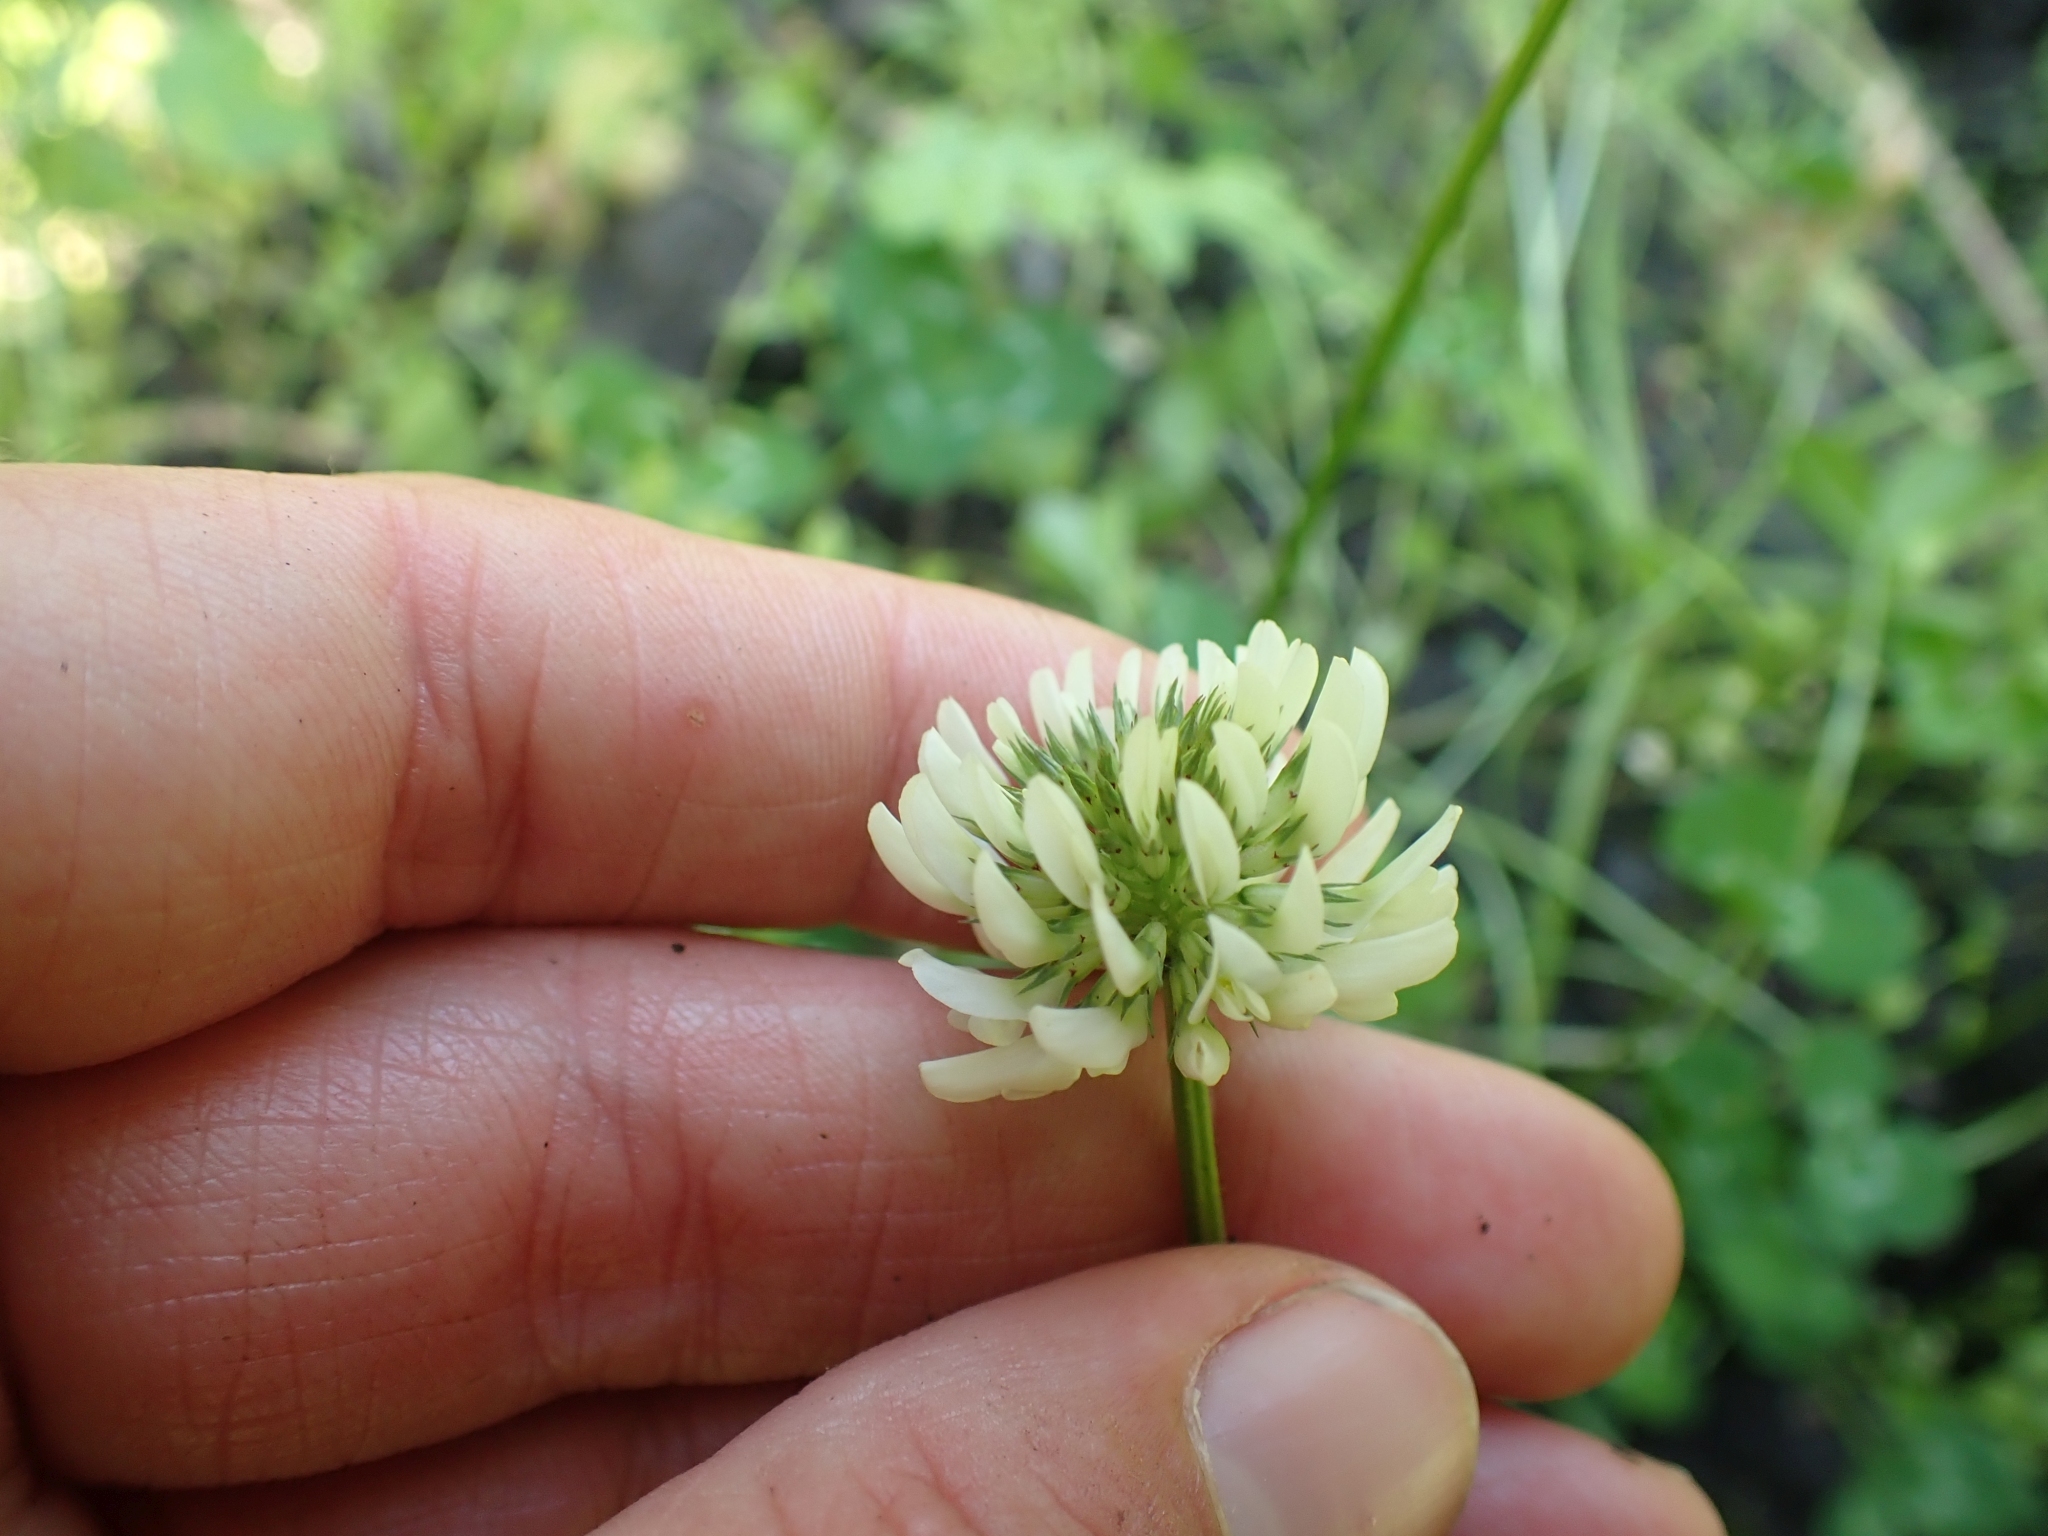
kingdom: Plantae
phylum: Tracheophyta
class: Magnoliopsida
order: Fabales
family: Fabaceae
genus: Trifolium
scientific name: Trifolium repens
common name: White clover
